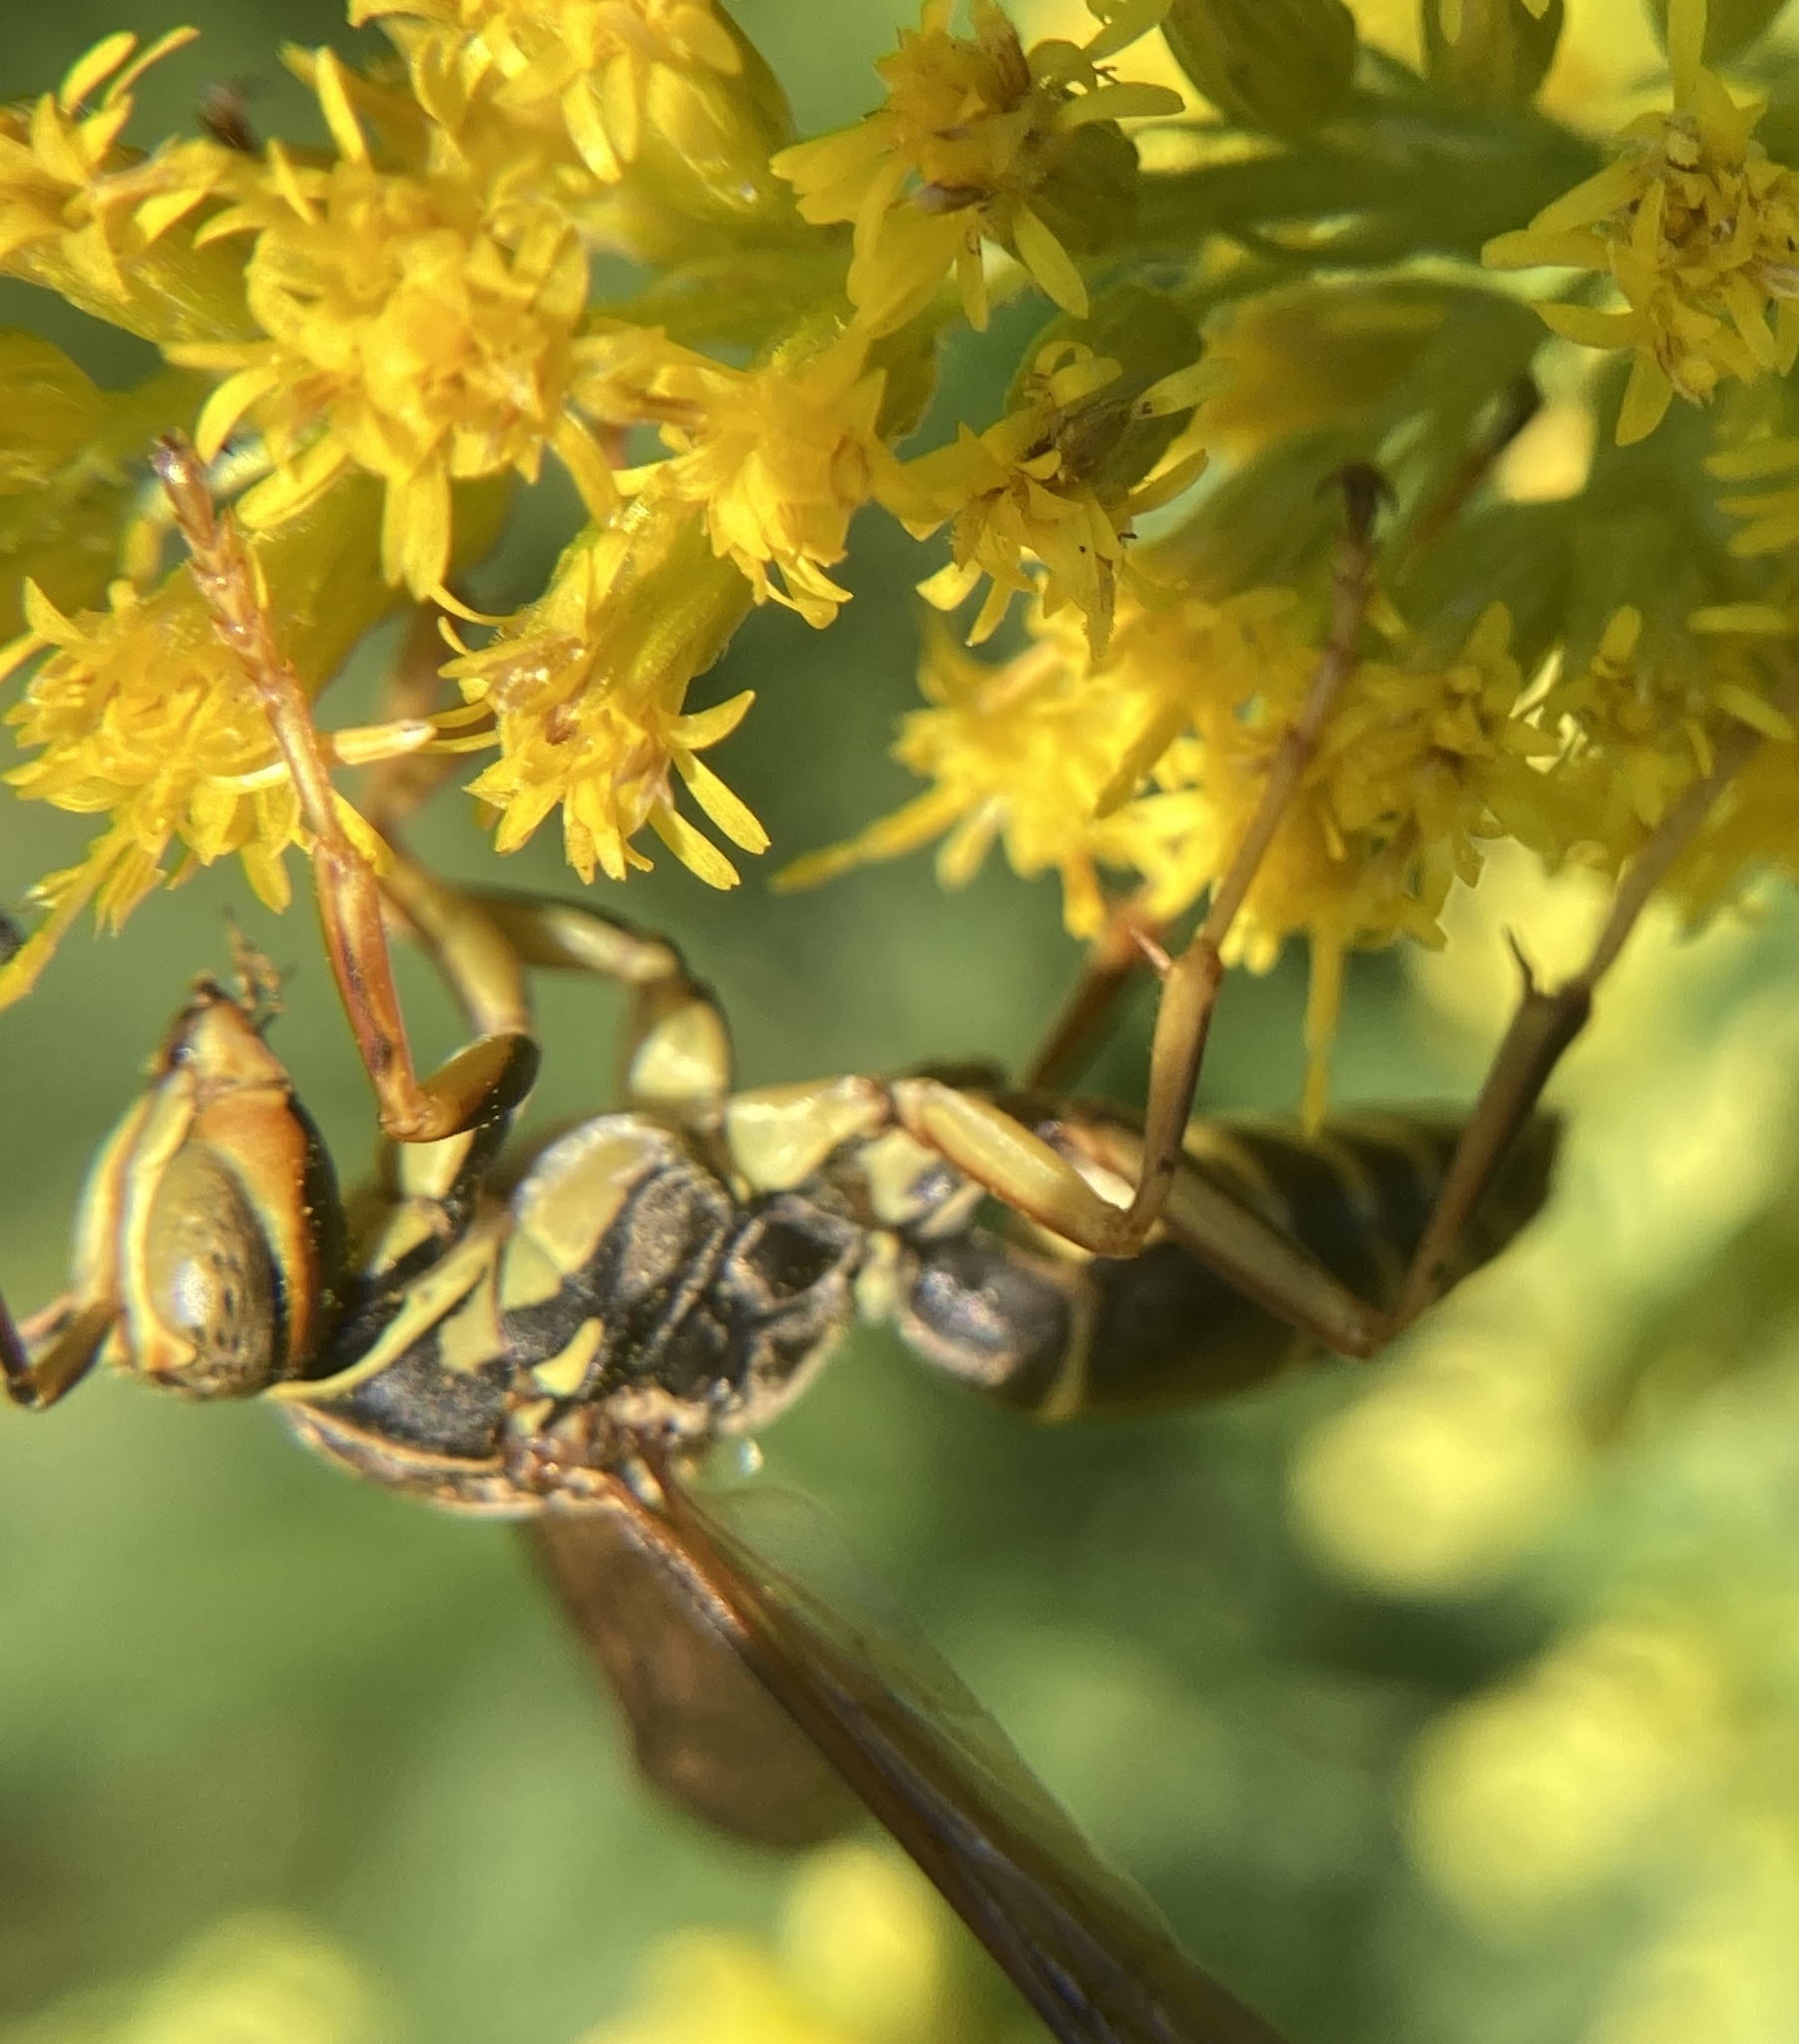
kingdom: Animalia
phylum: Arthropoda
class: Insecta
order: Hymenoptera
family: Eumenidae
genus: Polistes
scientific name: Polistes fuscatus
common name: Dark paper wasp
